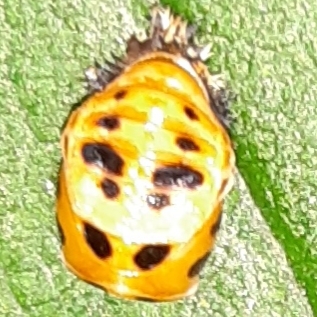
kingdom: Animalia
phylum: Arthropoda
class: Insecta
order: Coleoptera
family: Coccinellidae
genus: Harmonia
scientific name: Harmonia axyridis
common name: Harlequin ladybird
